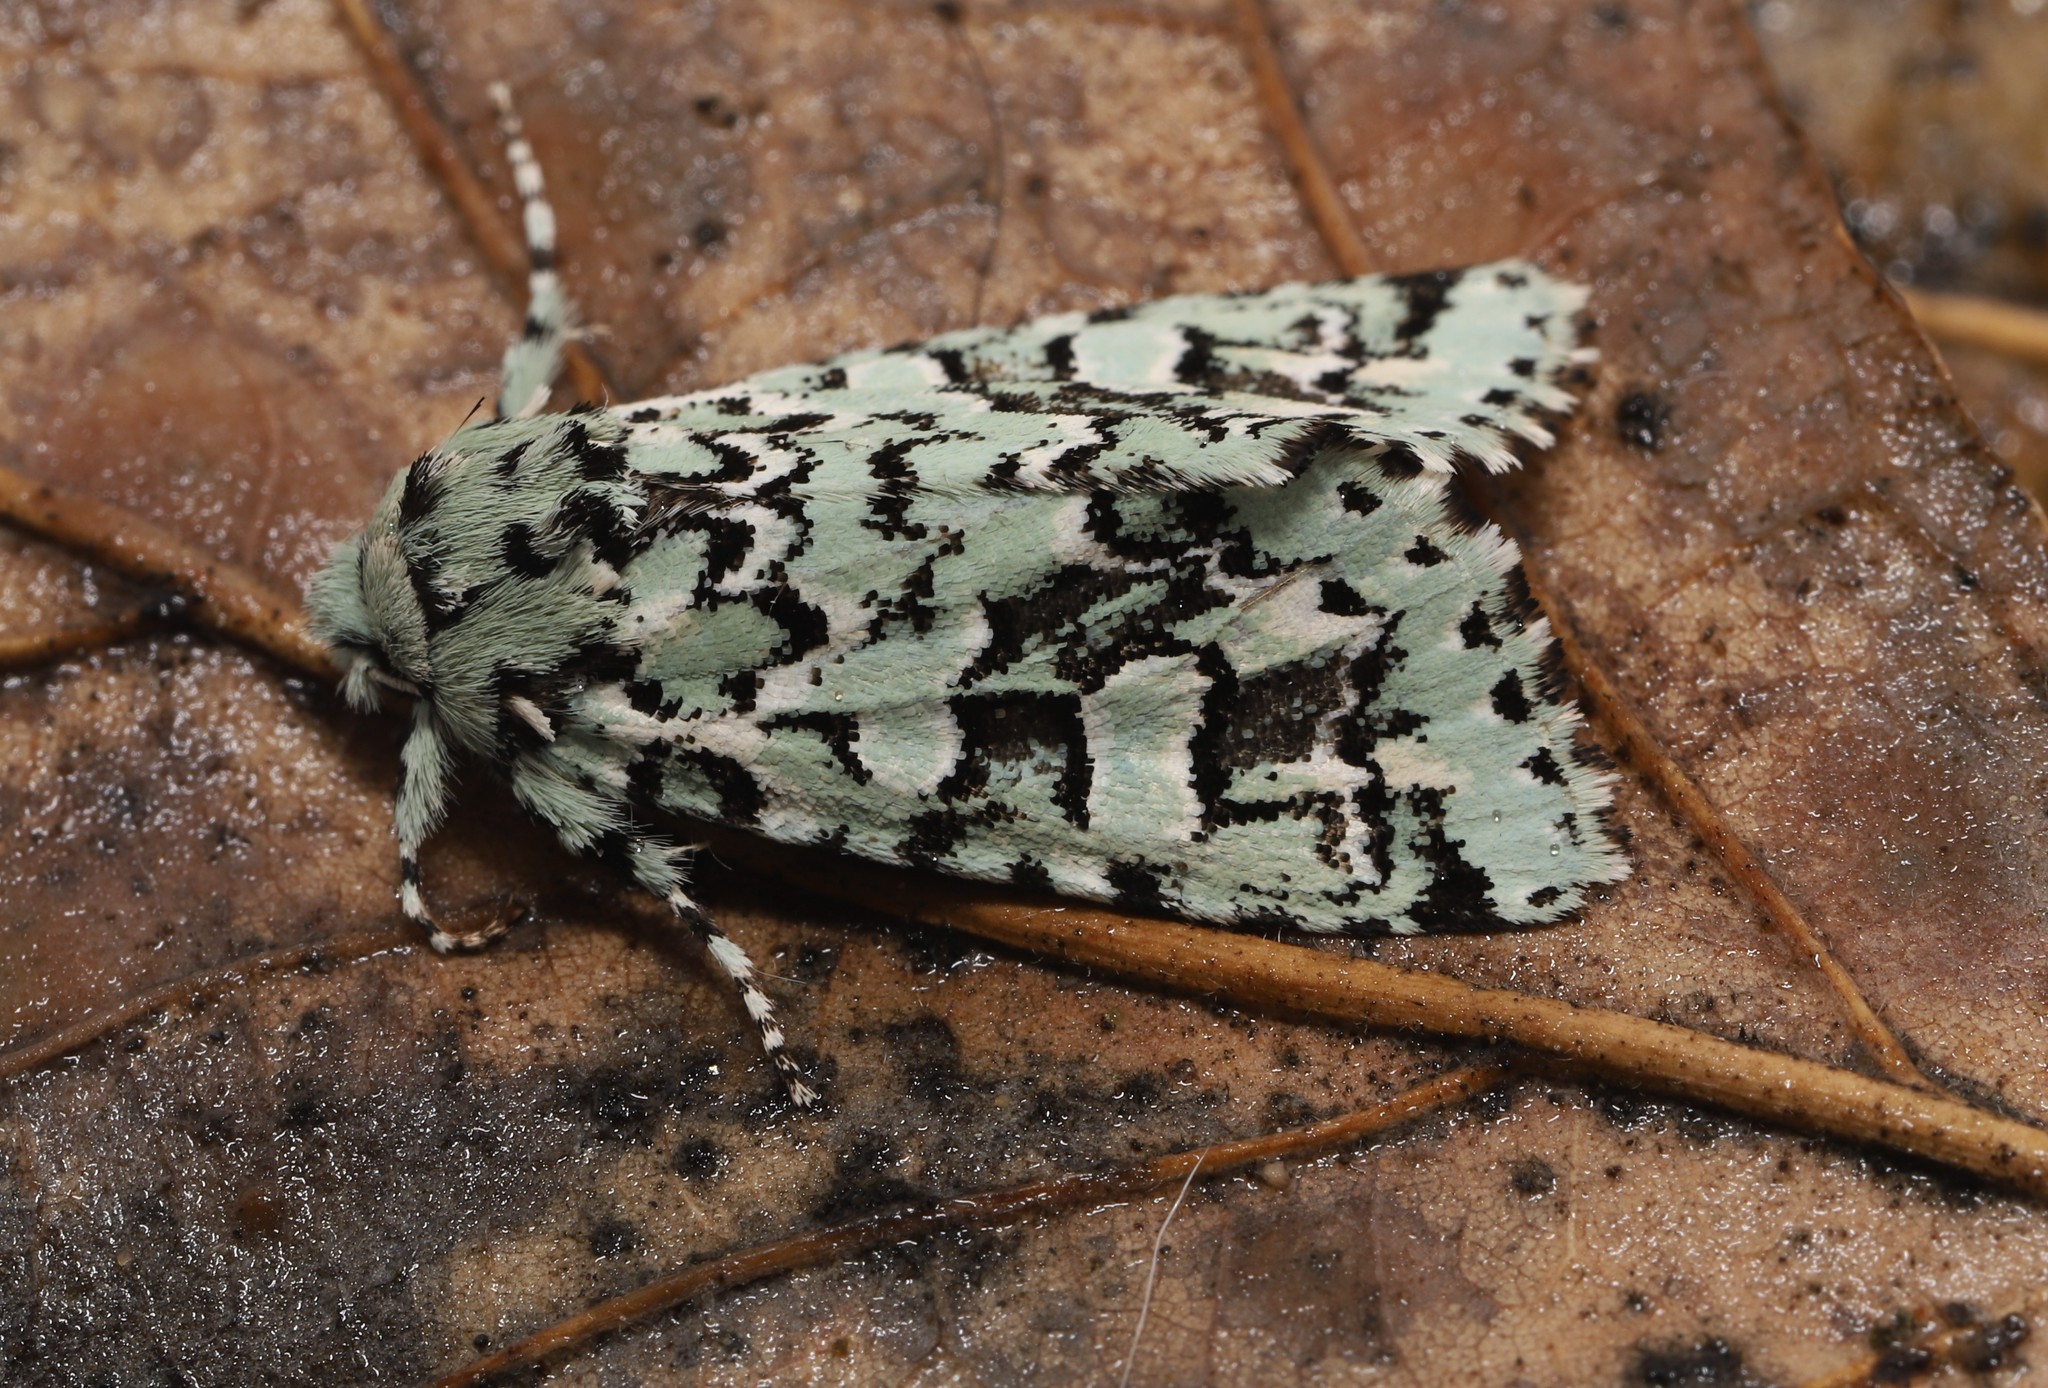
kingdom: Animalia
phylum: Arthropoda
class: Insecta
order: Lepidoptera
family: Noctuidae
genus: Feralia
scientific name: Feralia comstocki
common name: Comstock's sallow
